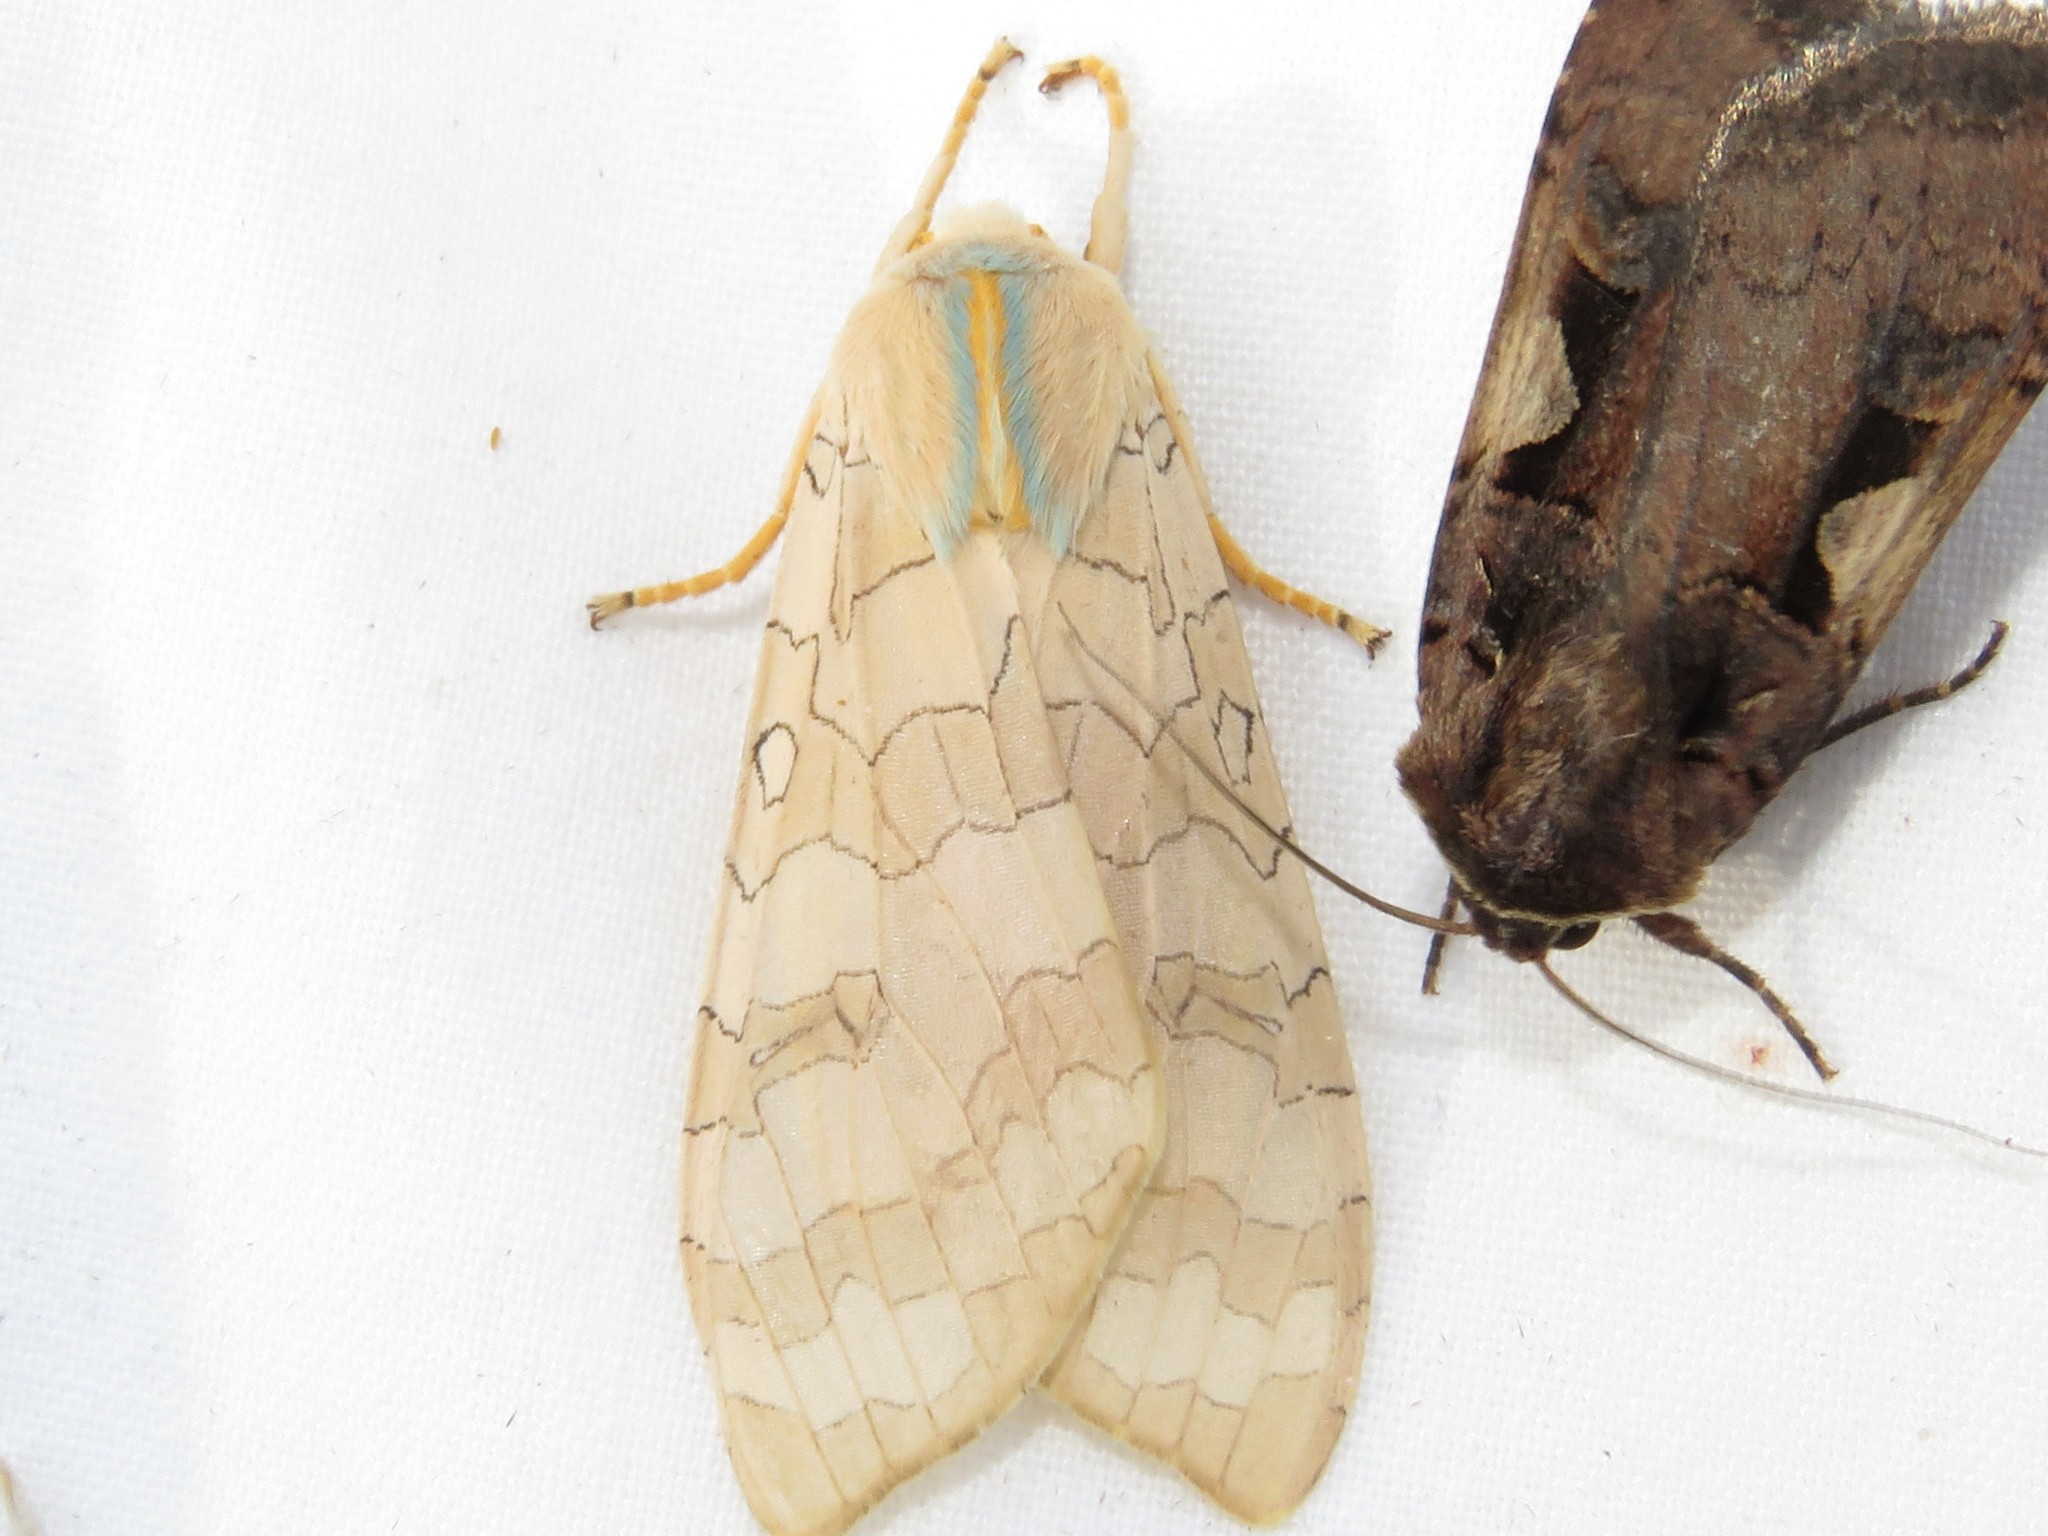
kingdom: Animalia
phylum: Arthropoda
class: Insecta
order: Lepidoptera
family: Erebidae
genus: Halysidota
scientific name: Halysidota tessellaris
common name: Banded tussock moth
